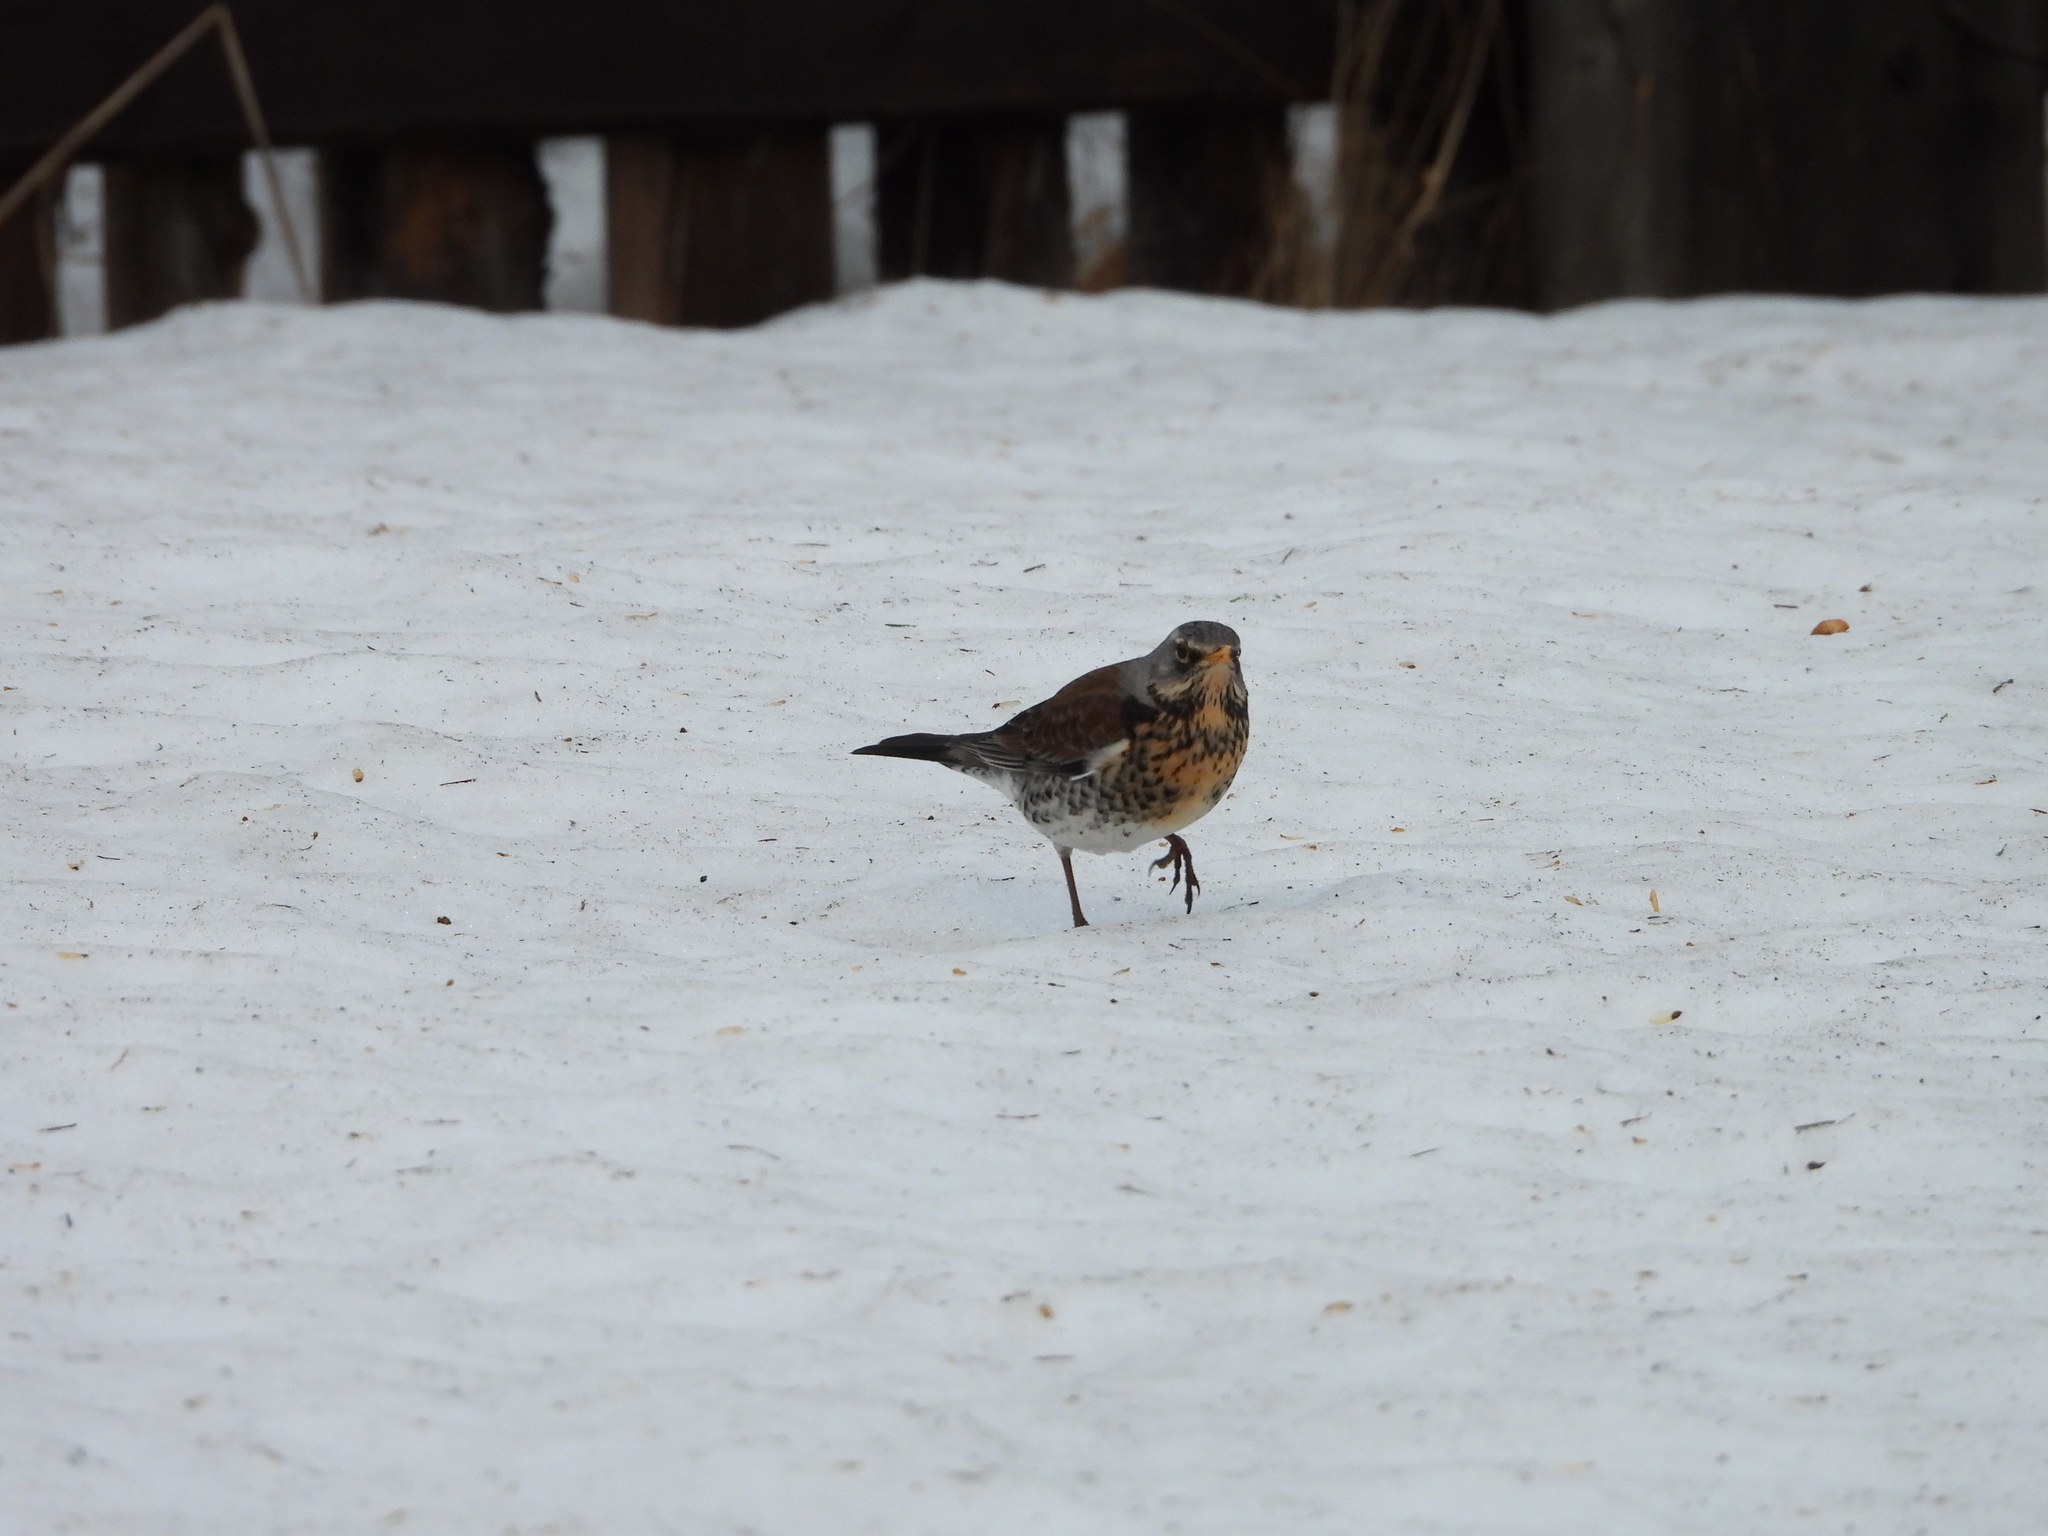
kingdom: Animalia
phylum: Chordata
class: Aves
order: Passeriformes
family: Turdidae
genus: Turdus
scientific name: Turdus pilaris
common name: Fieldfare
